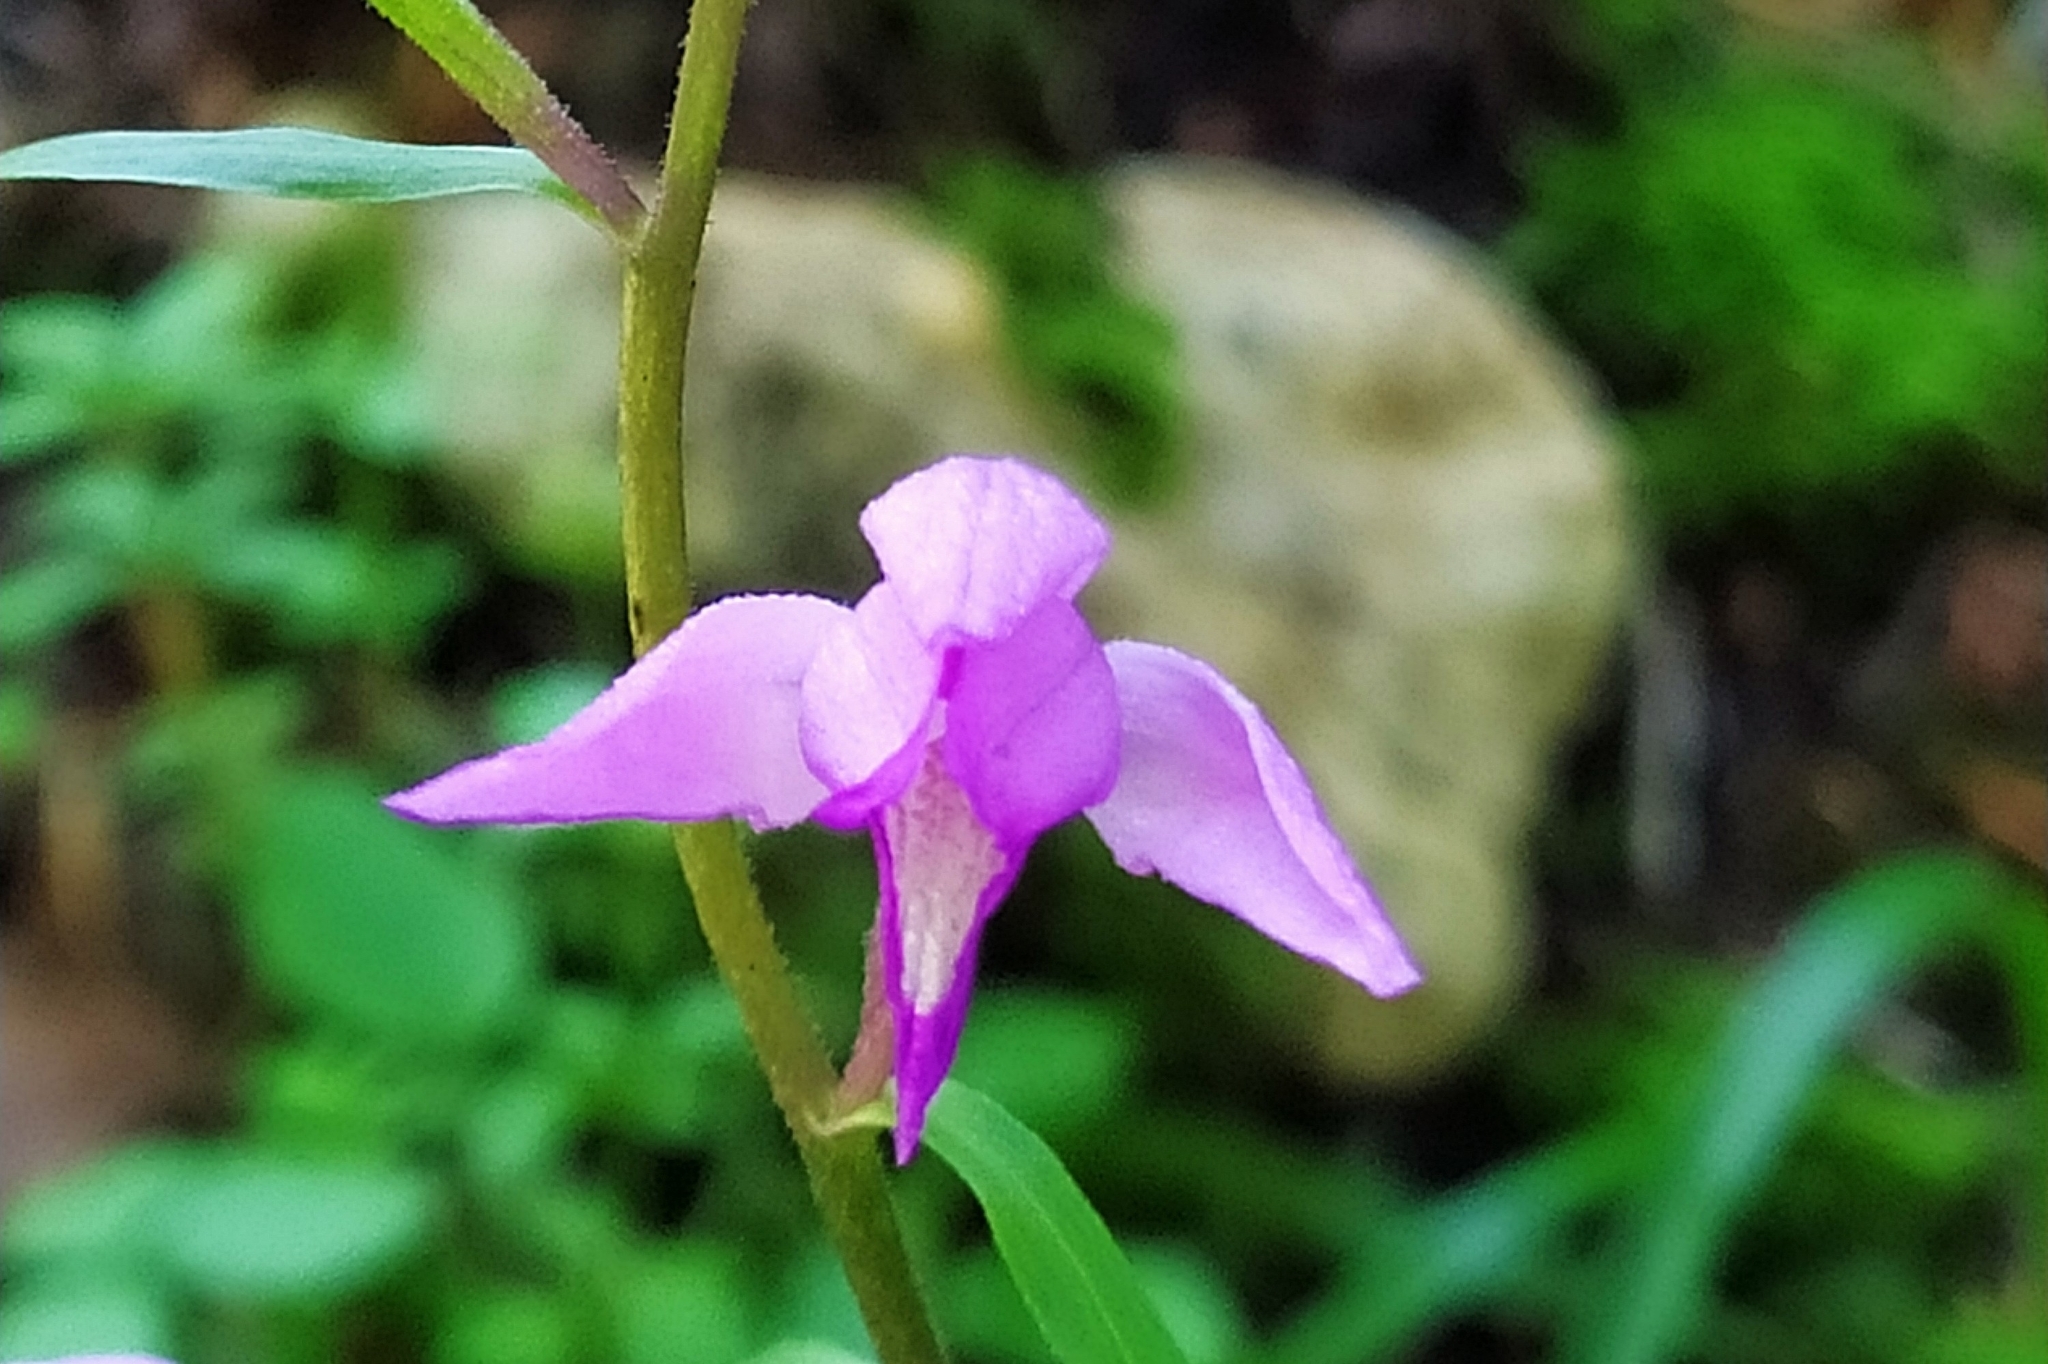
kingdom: Plantae
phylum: Tracheophyta
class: Liliopsida
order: Asparagales
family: Orchidaceae
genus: Cephalanthera
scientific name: Cephalanthera rubra
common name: Red helleborine
